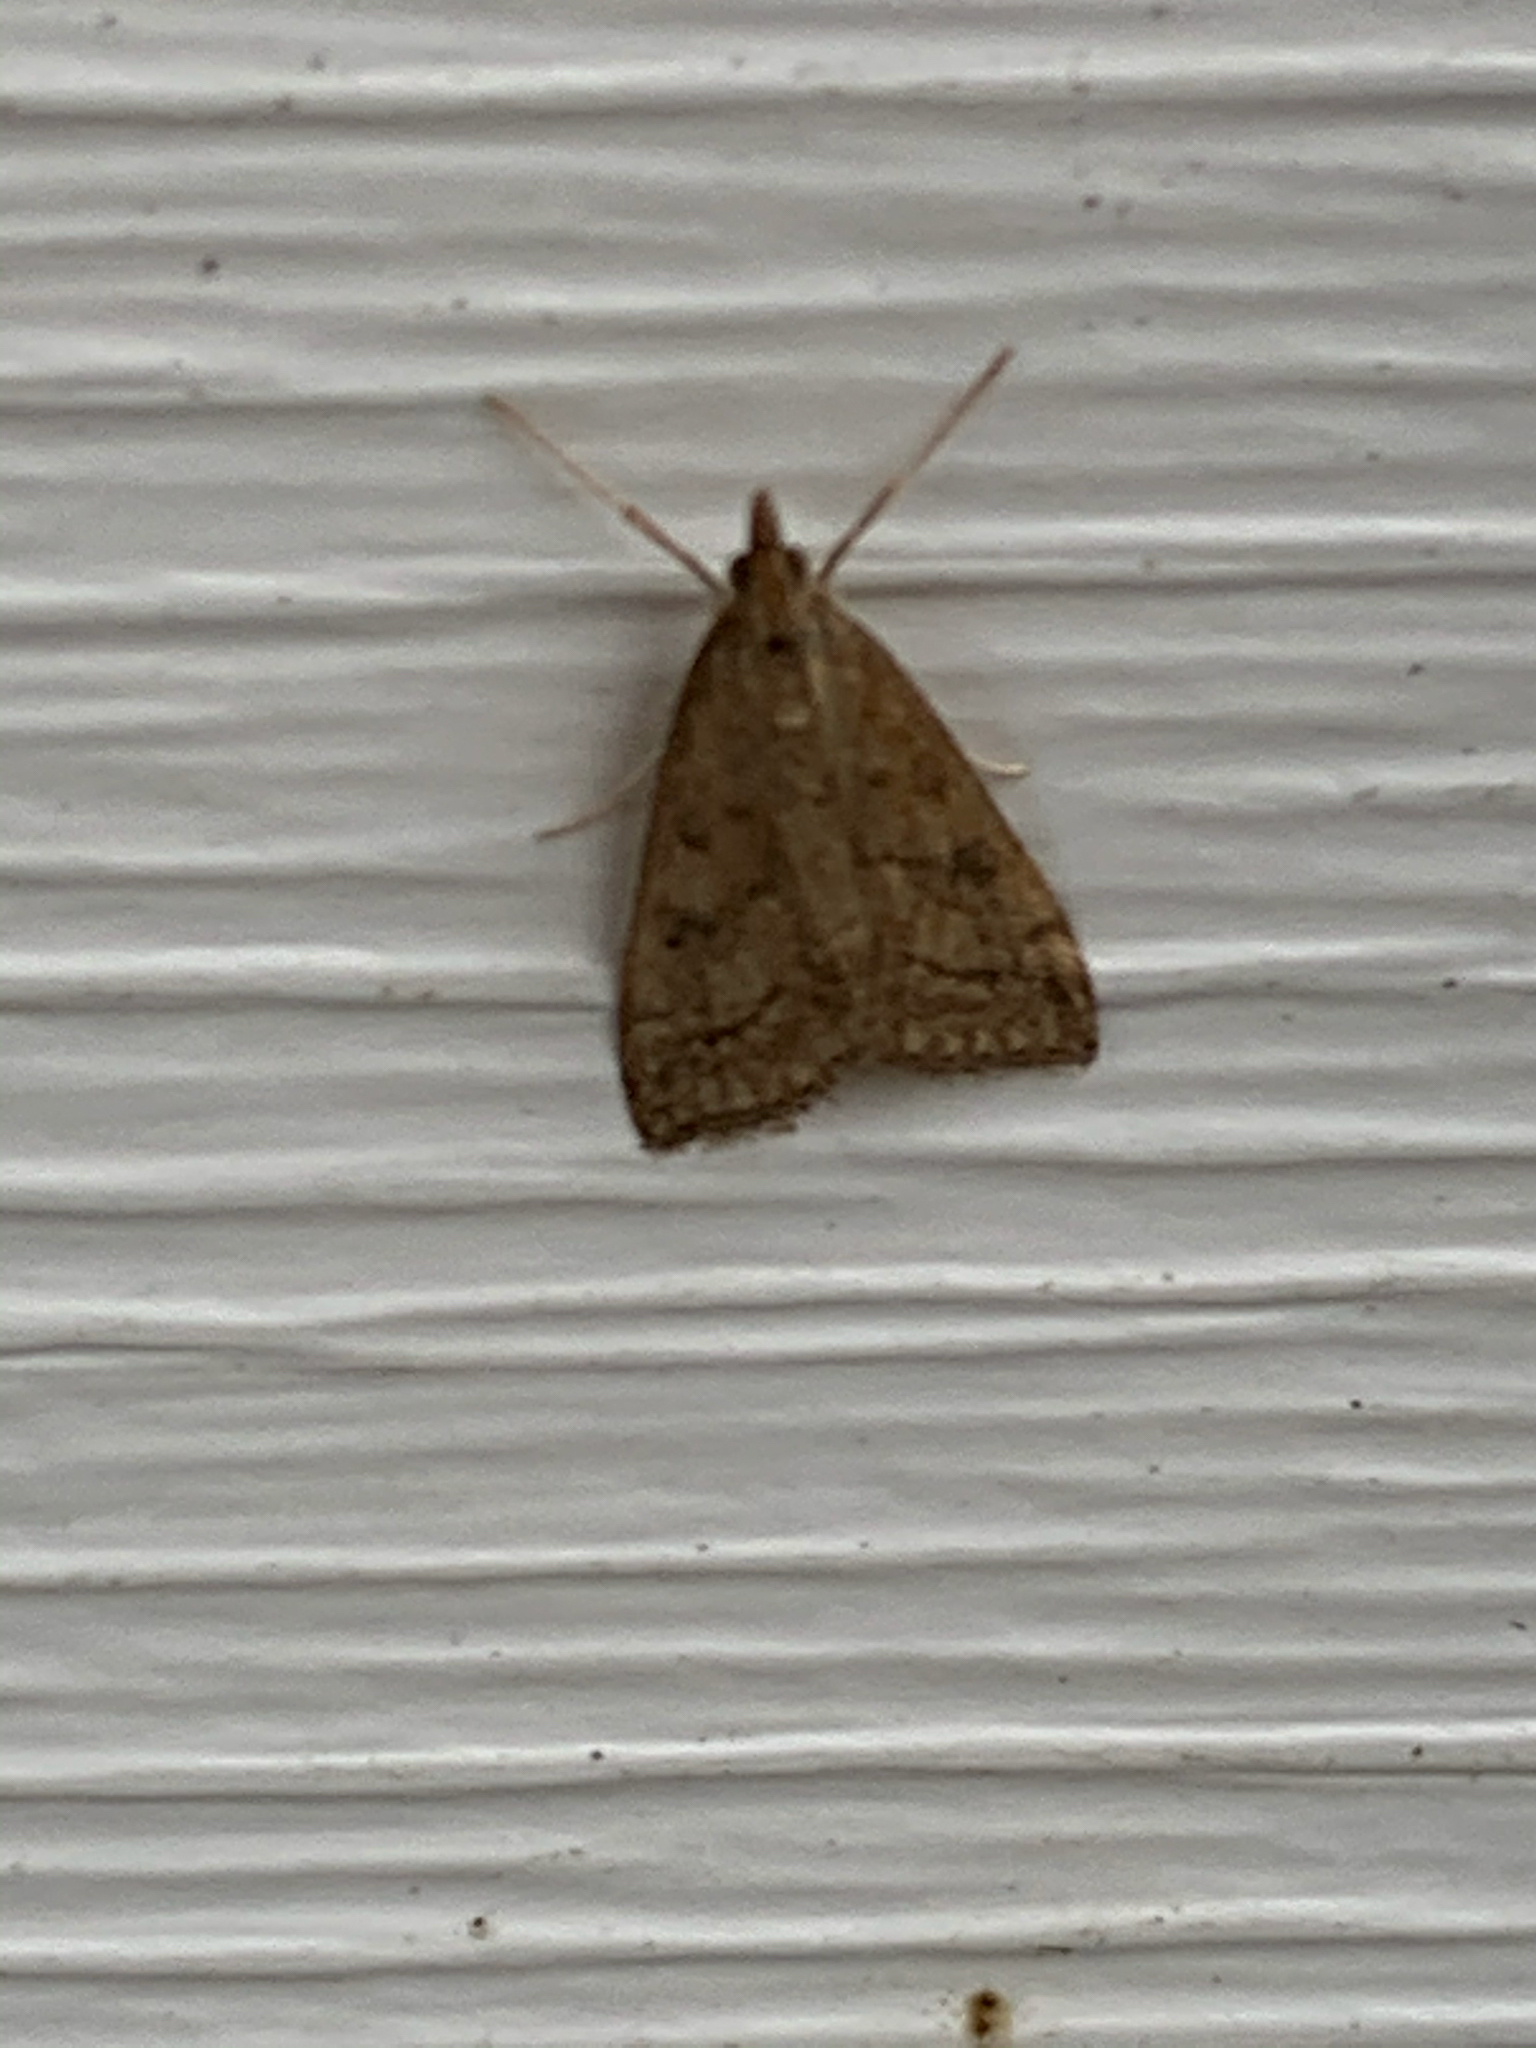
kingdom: Animalia
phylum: Arthropoda
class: Insecta
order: Lepidoptera
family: Crambidae
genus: Udea
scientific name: Udea rubigalis
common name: Celery leaftier moth
